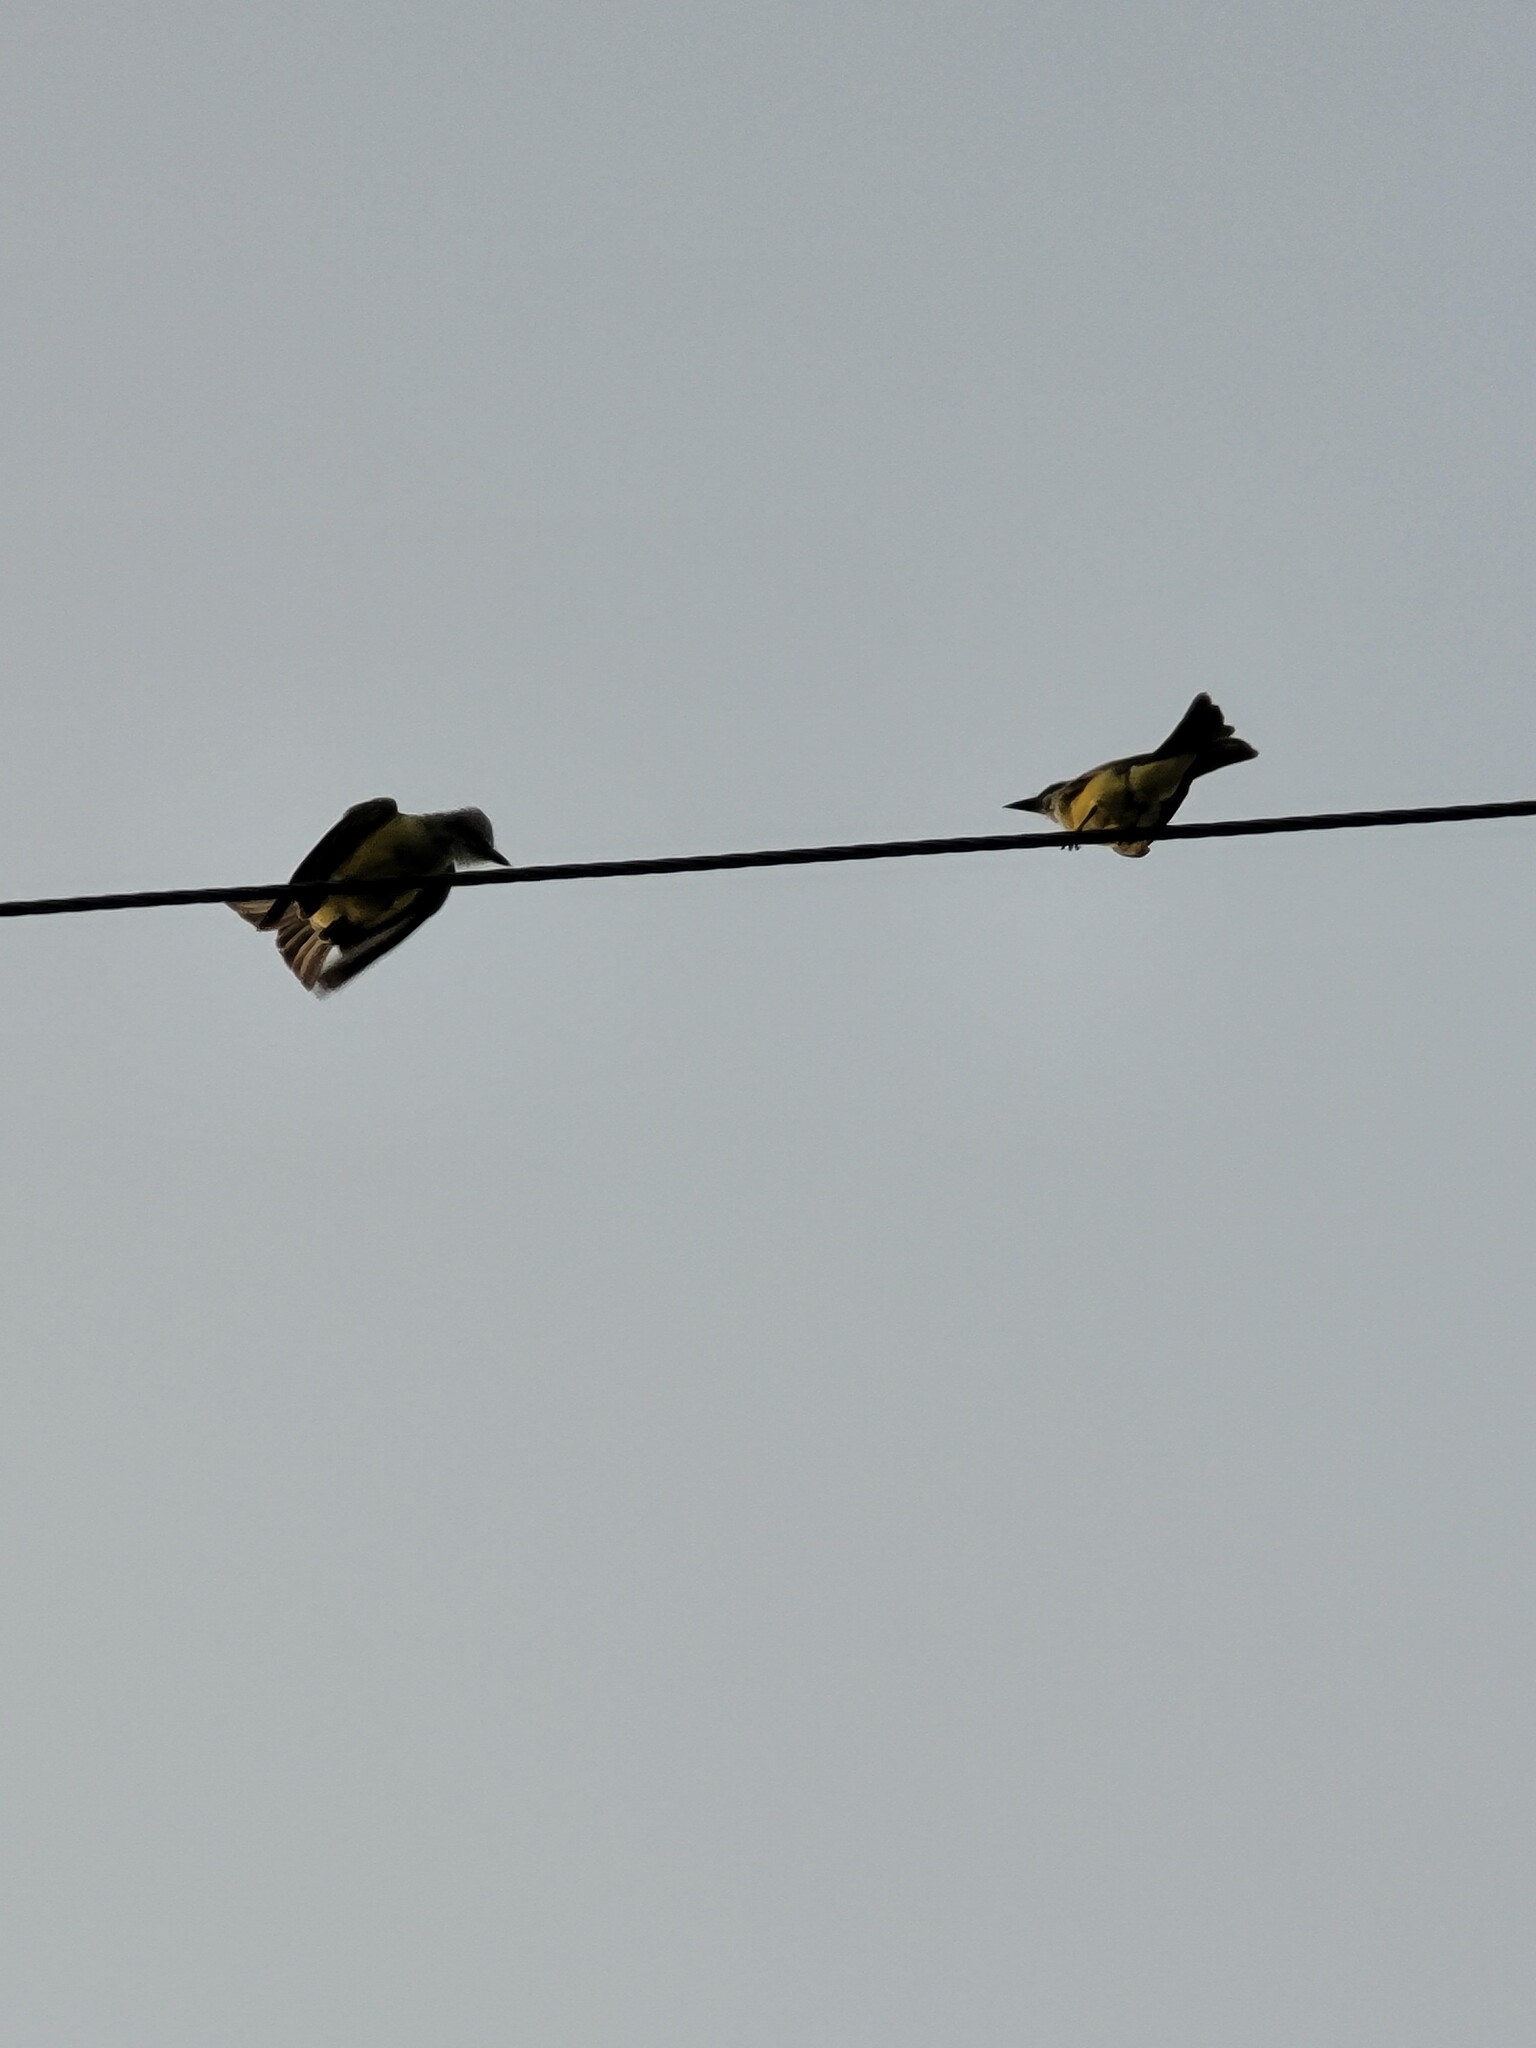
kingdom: Animalia
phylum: Chordata
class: Aves
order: Passeriformes
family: Tyrannidae
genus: Tyrannus
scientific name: Tyrannus verticalis
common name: Western kingbird
